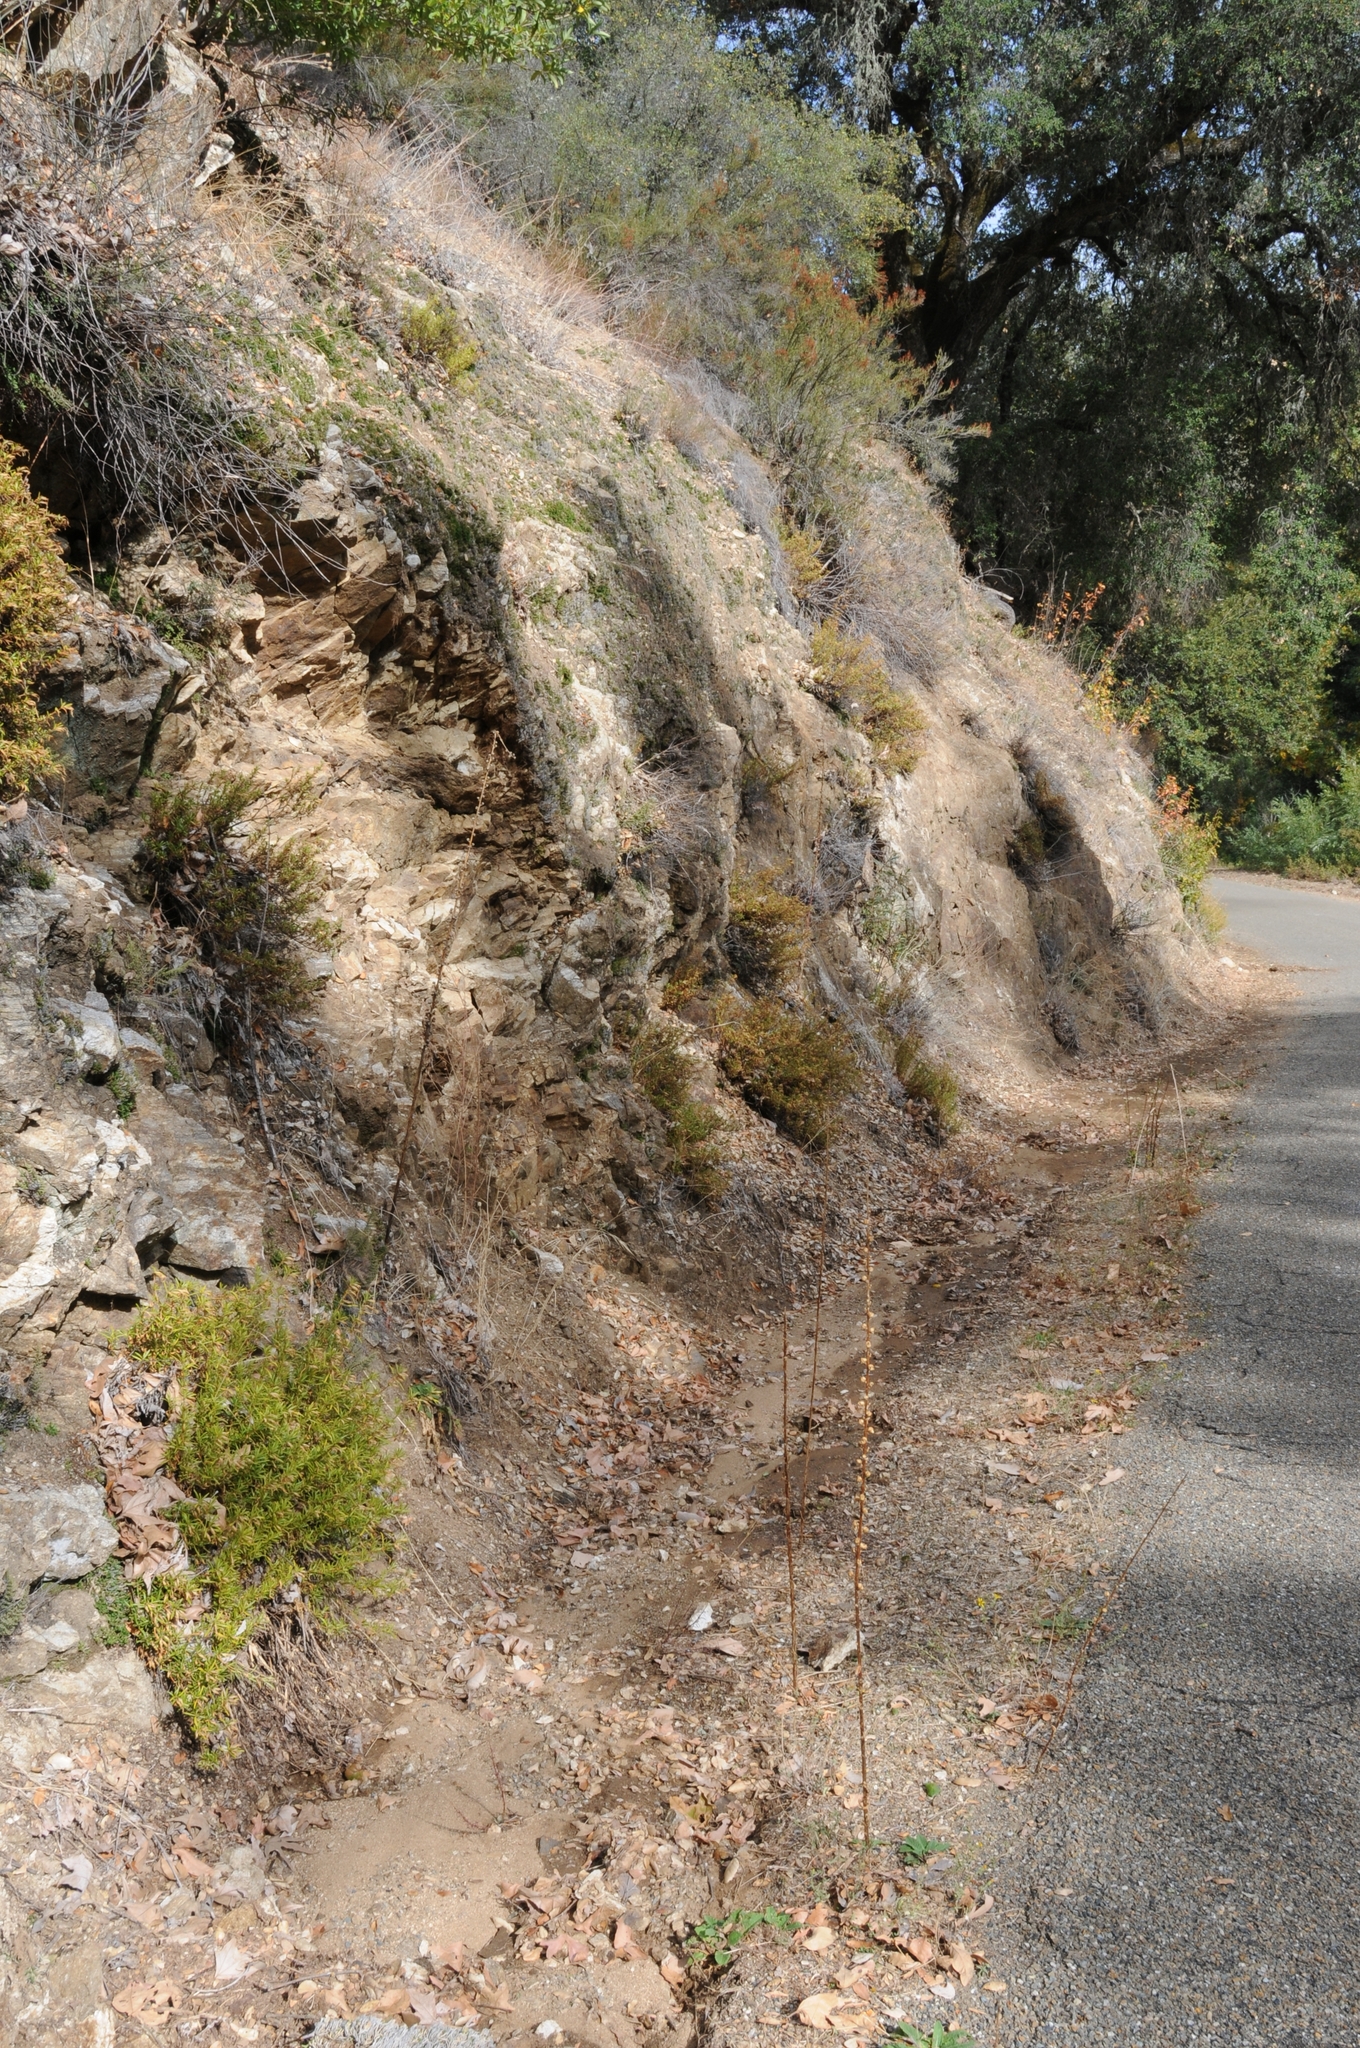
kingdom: Plantae
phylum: Tracheophyta
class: Polypodiopsida
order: Polypodiales
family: Pteridaceae
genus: Pellaea
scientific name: Pellaea mucronata
